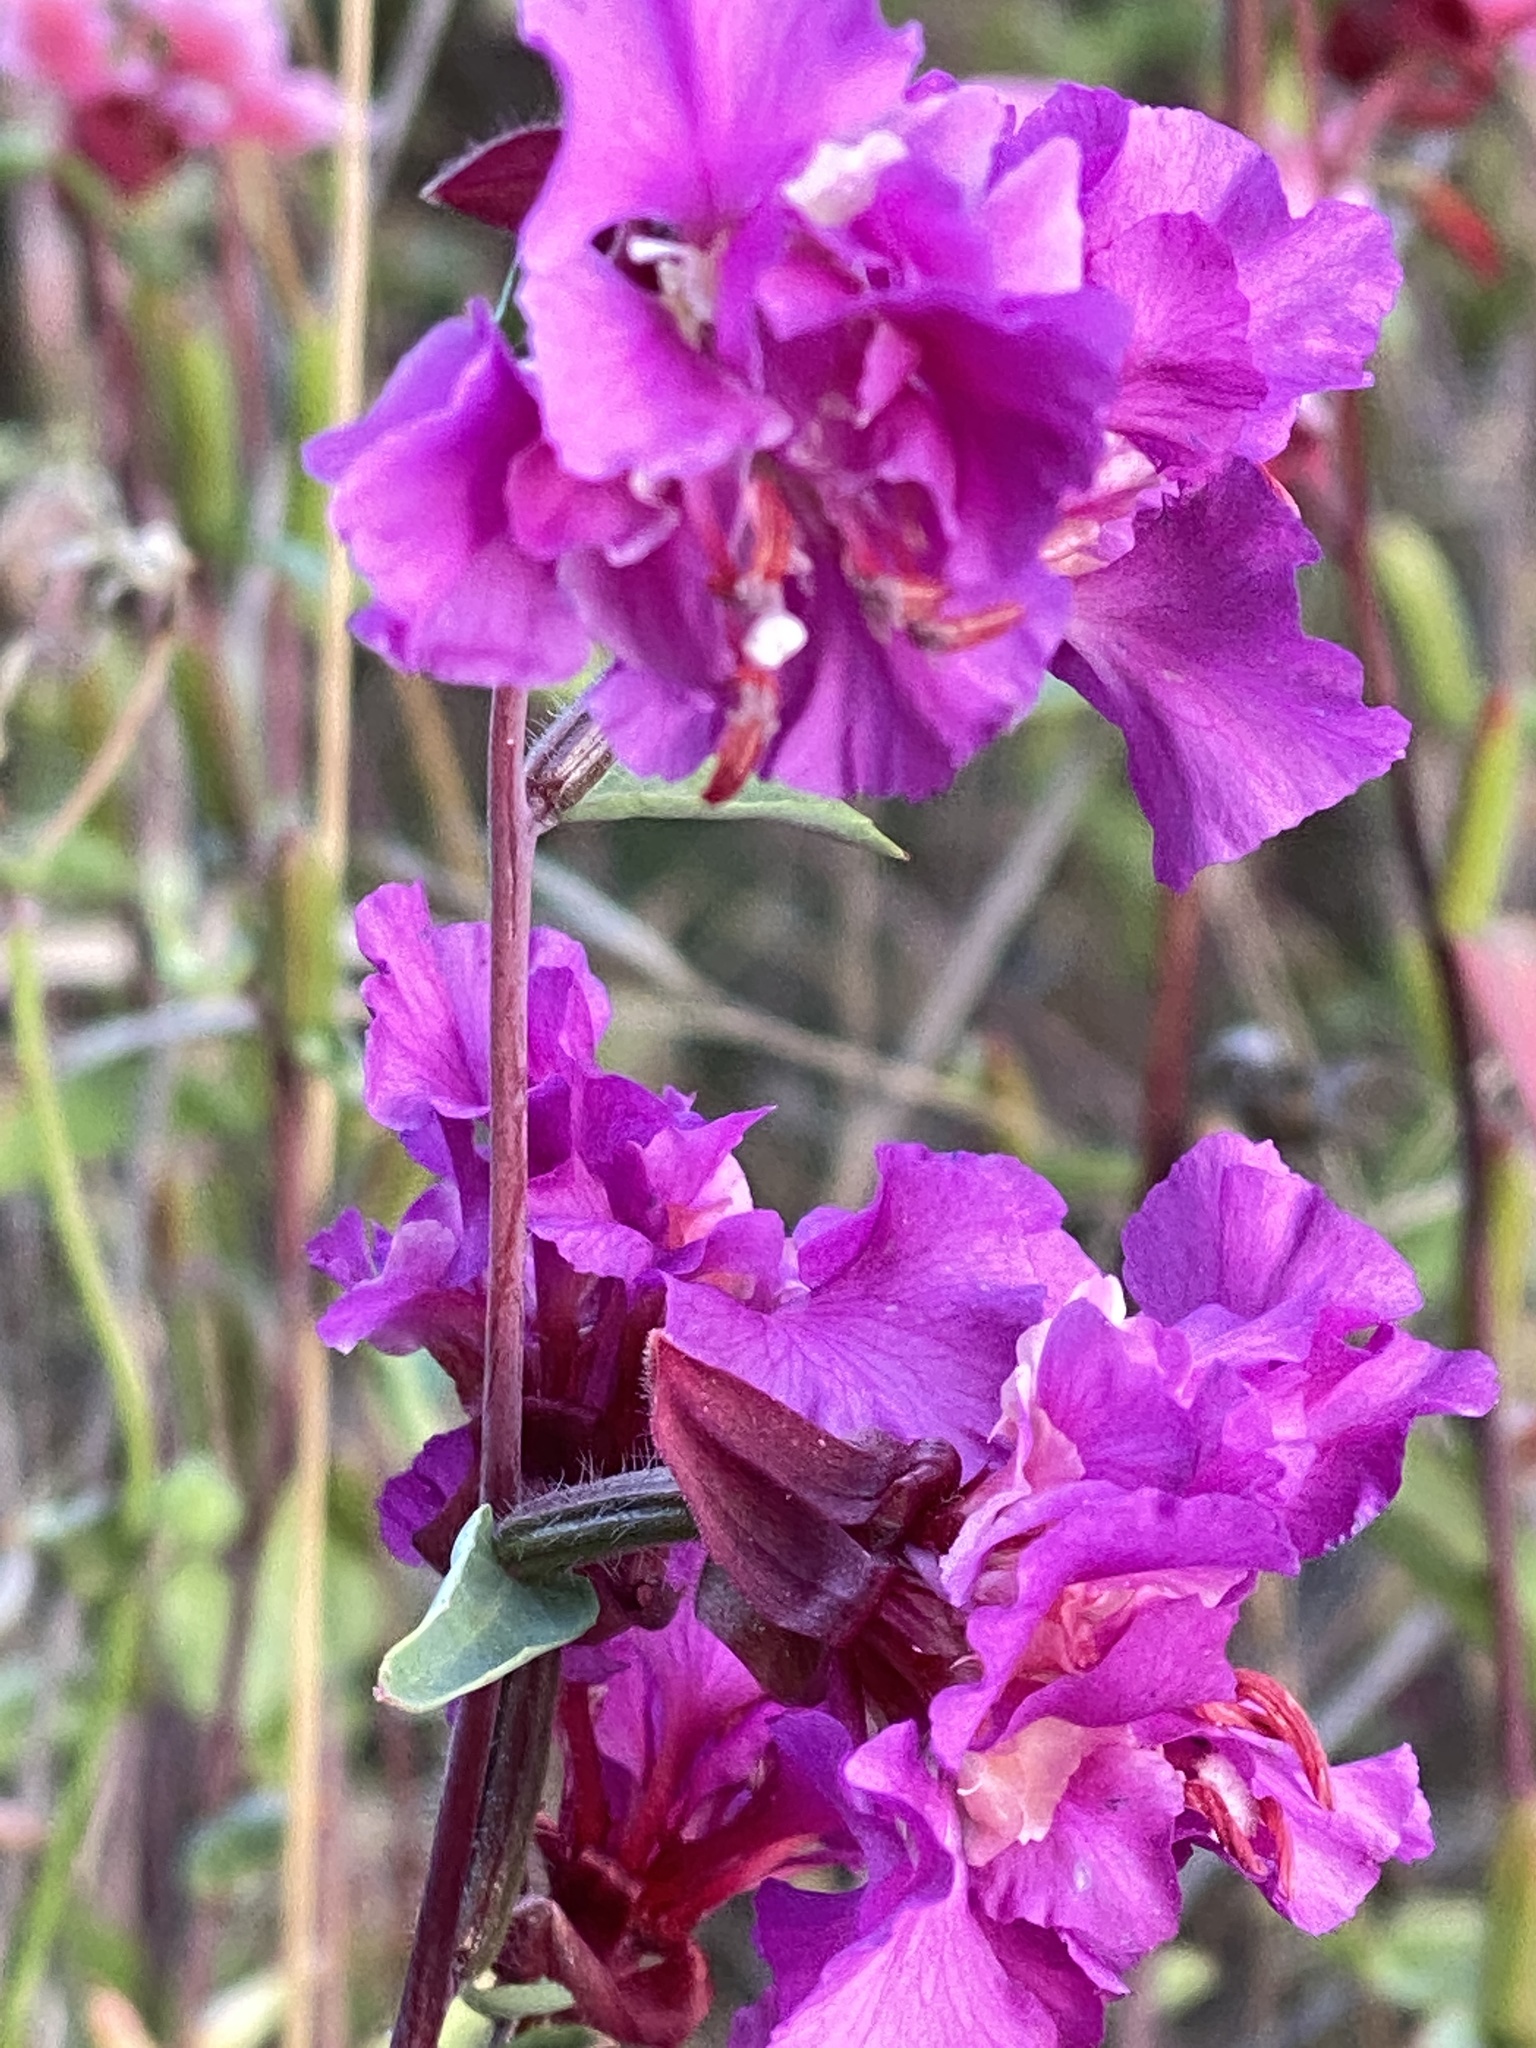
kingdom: Plantae
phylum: Tracheophyta
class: Magnoliopsida
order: Myrtales
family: Onagraceae
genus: Clarkia
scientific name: Clarkia unguiculata
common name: Clarkia
